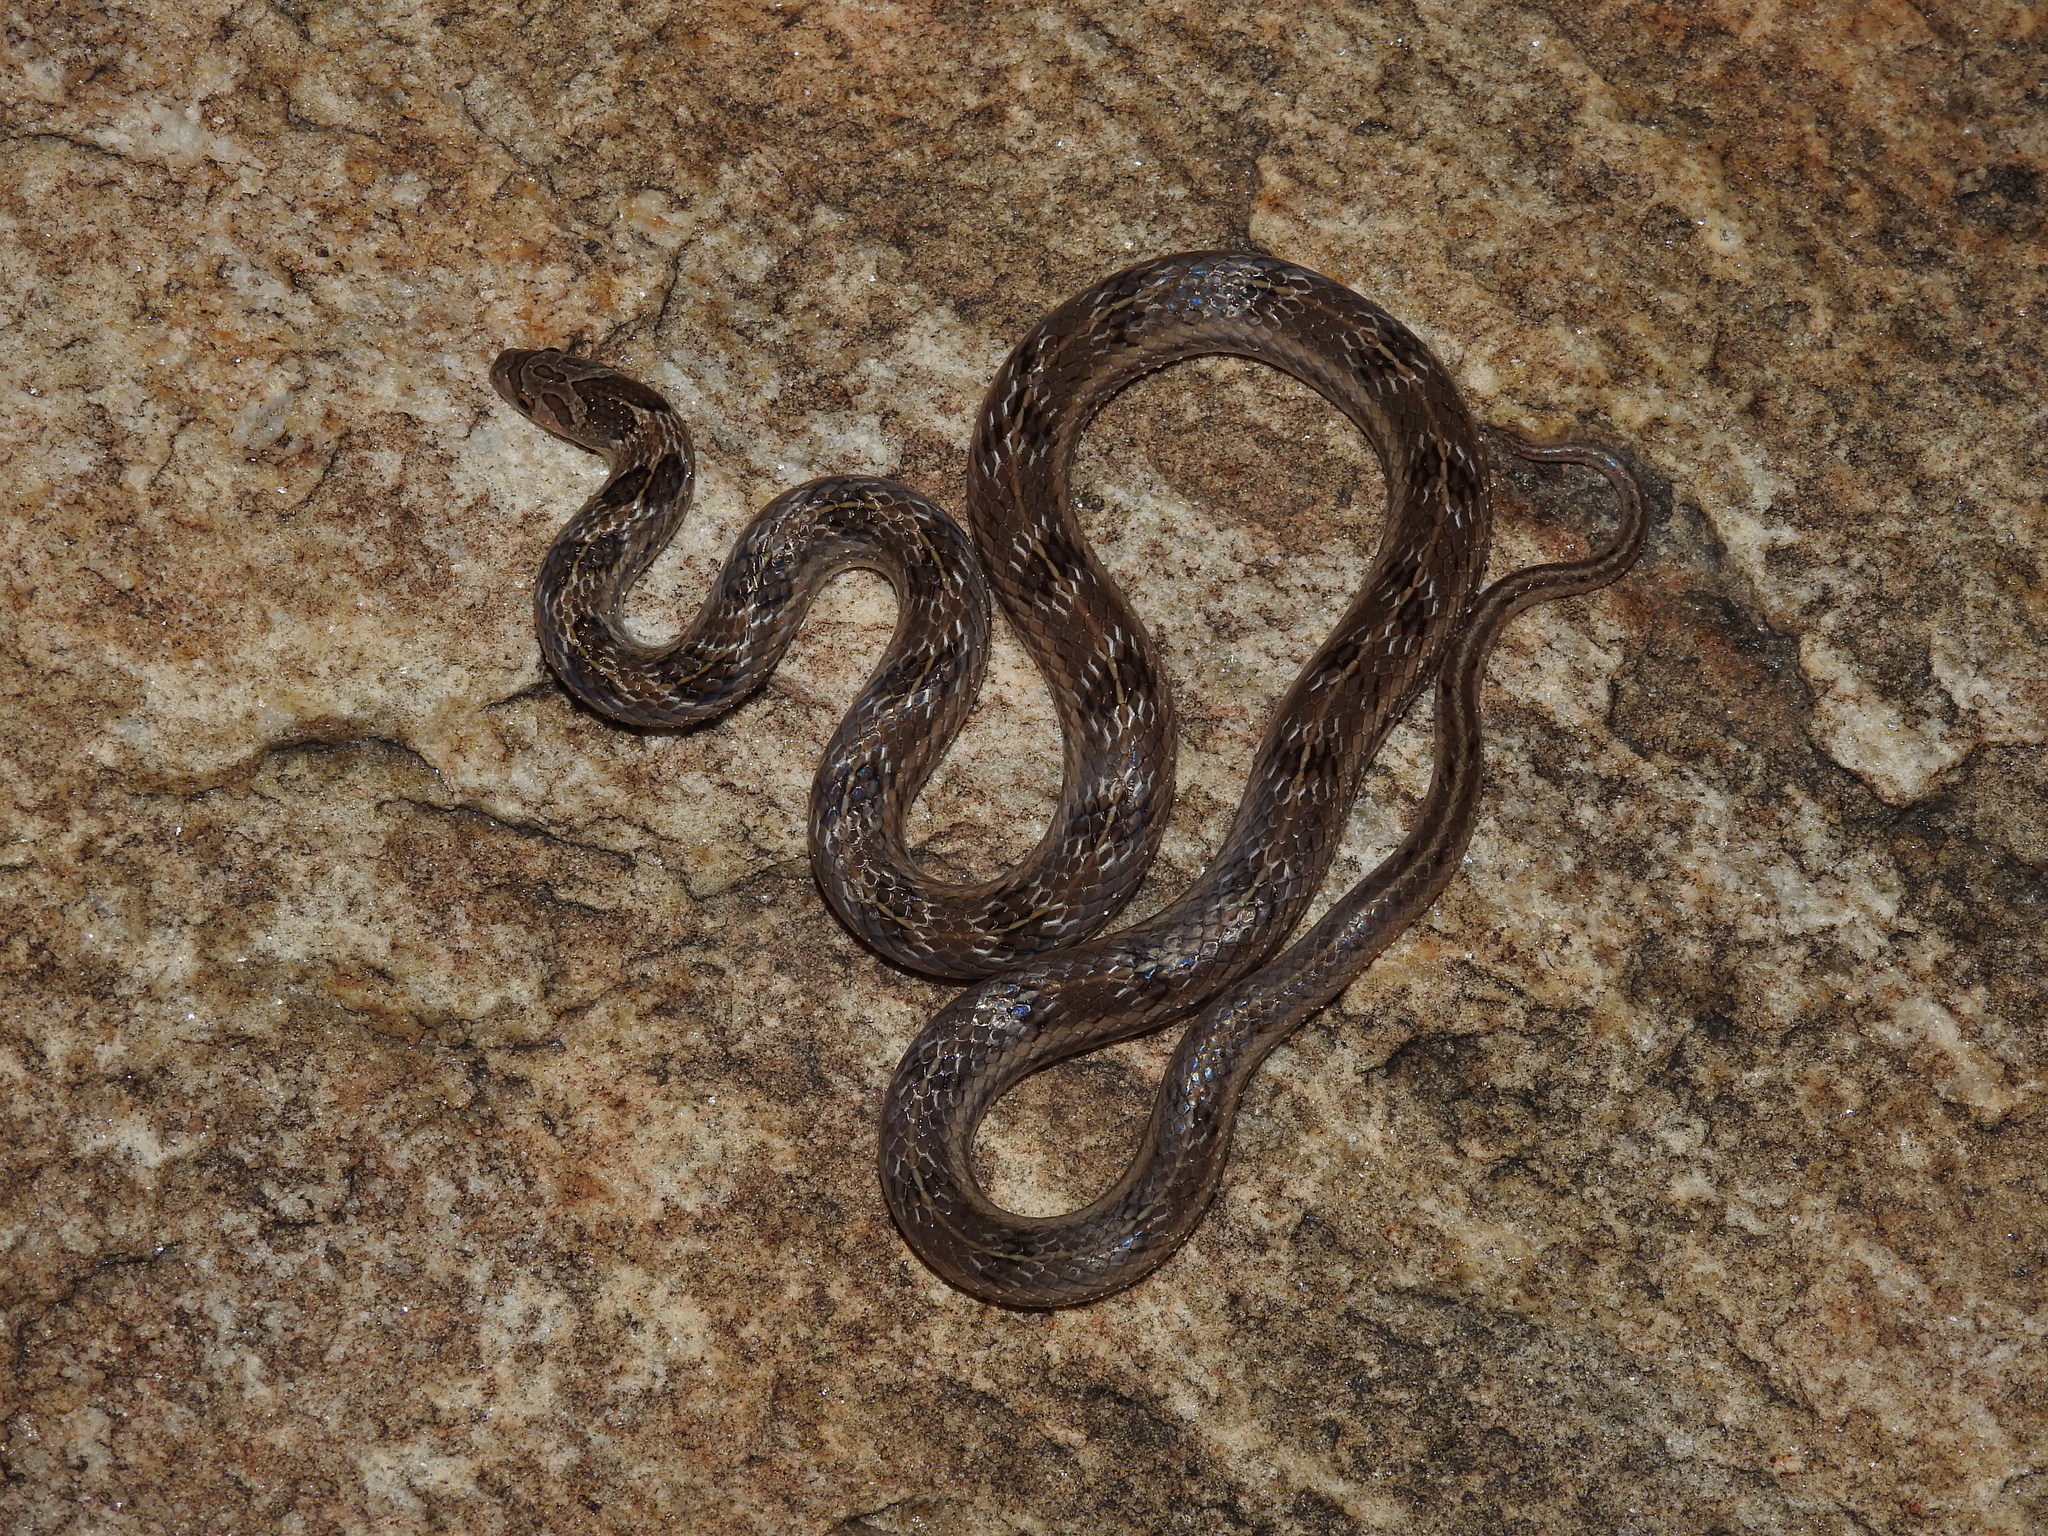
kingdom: Animalia
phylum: Chordata
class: Squamata
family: Colubridae
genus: Oligodon
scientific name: Oligodon taeniolatus
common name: Loos snake
